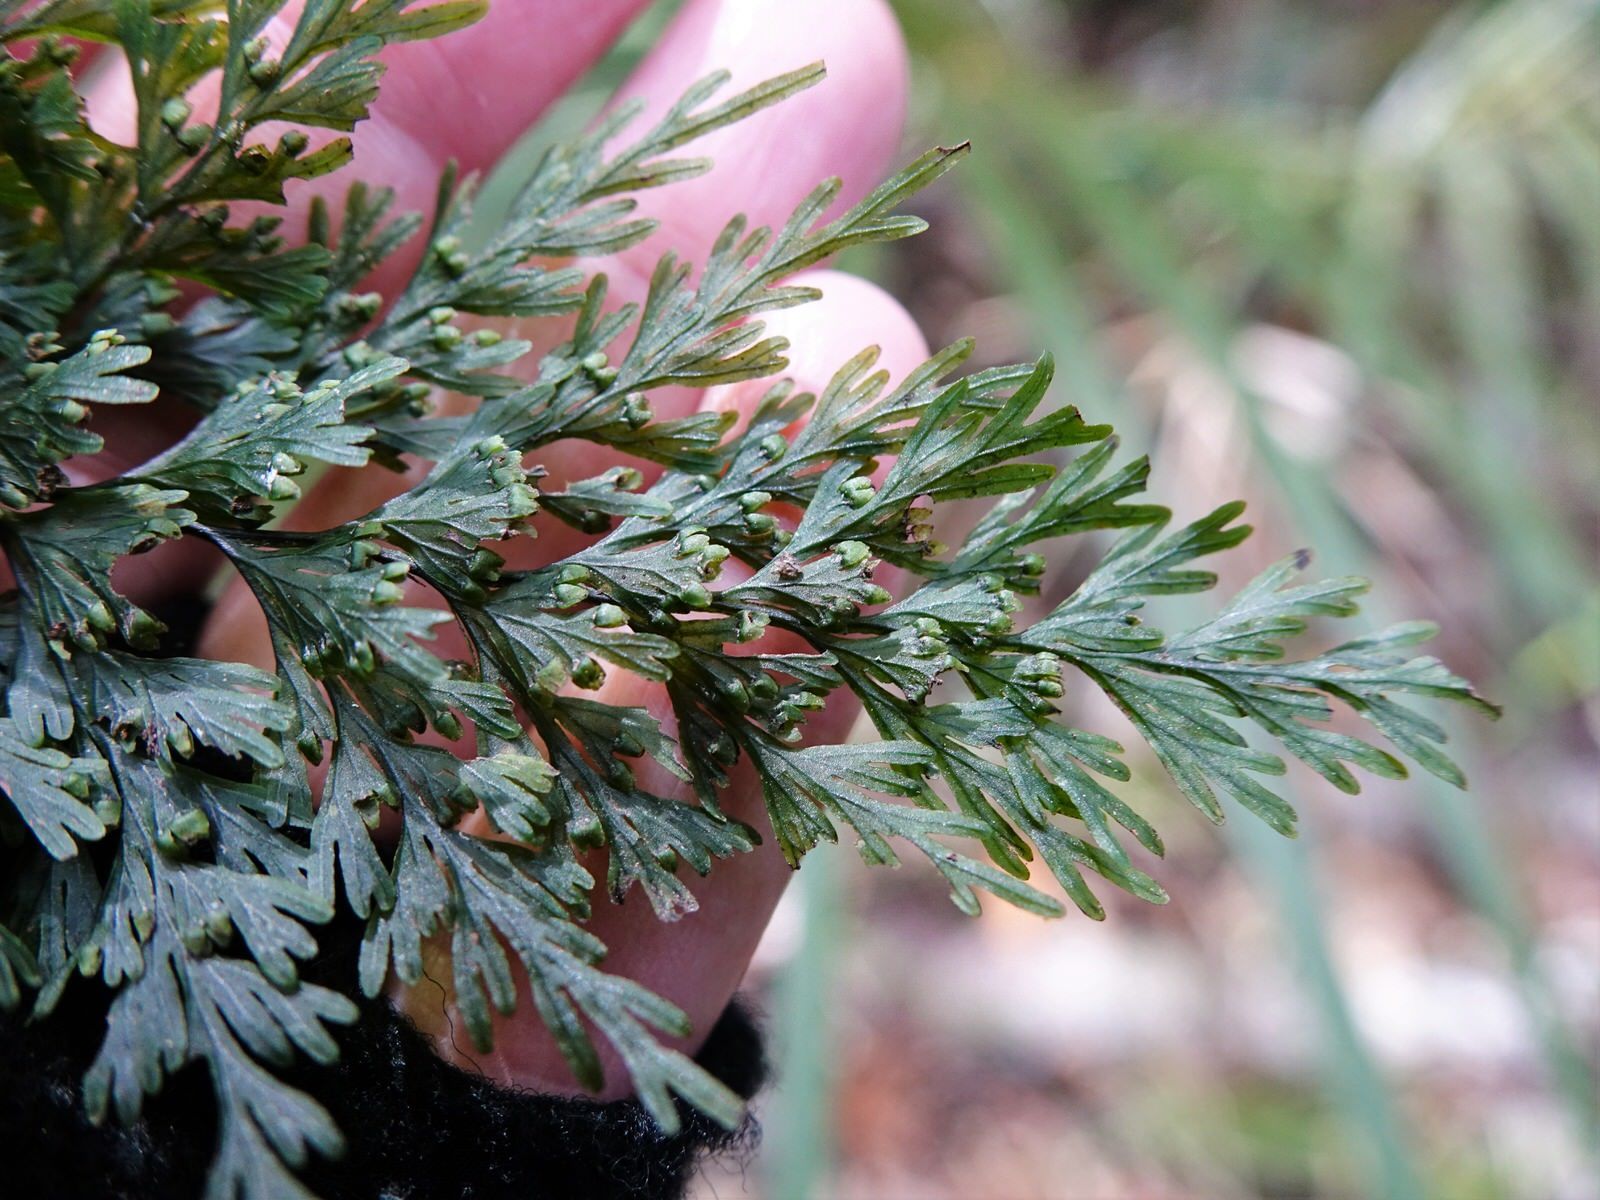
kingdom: Plantae
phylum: Tracheophyta
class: Polypodiopsida
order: Hymenophyllales
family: Hymenophyllaceae
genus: Hymenophyllum
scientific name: Hymenophyllum demissum
